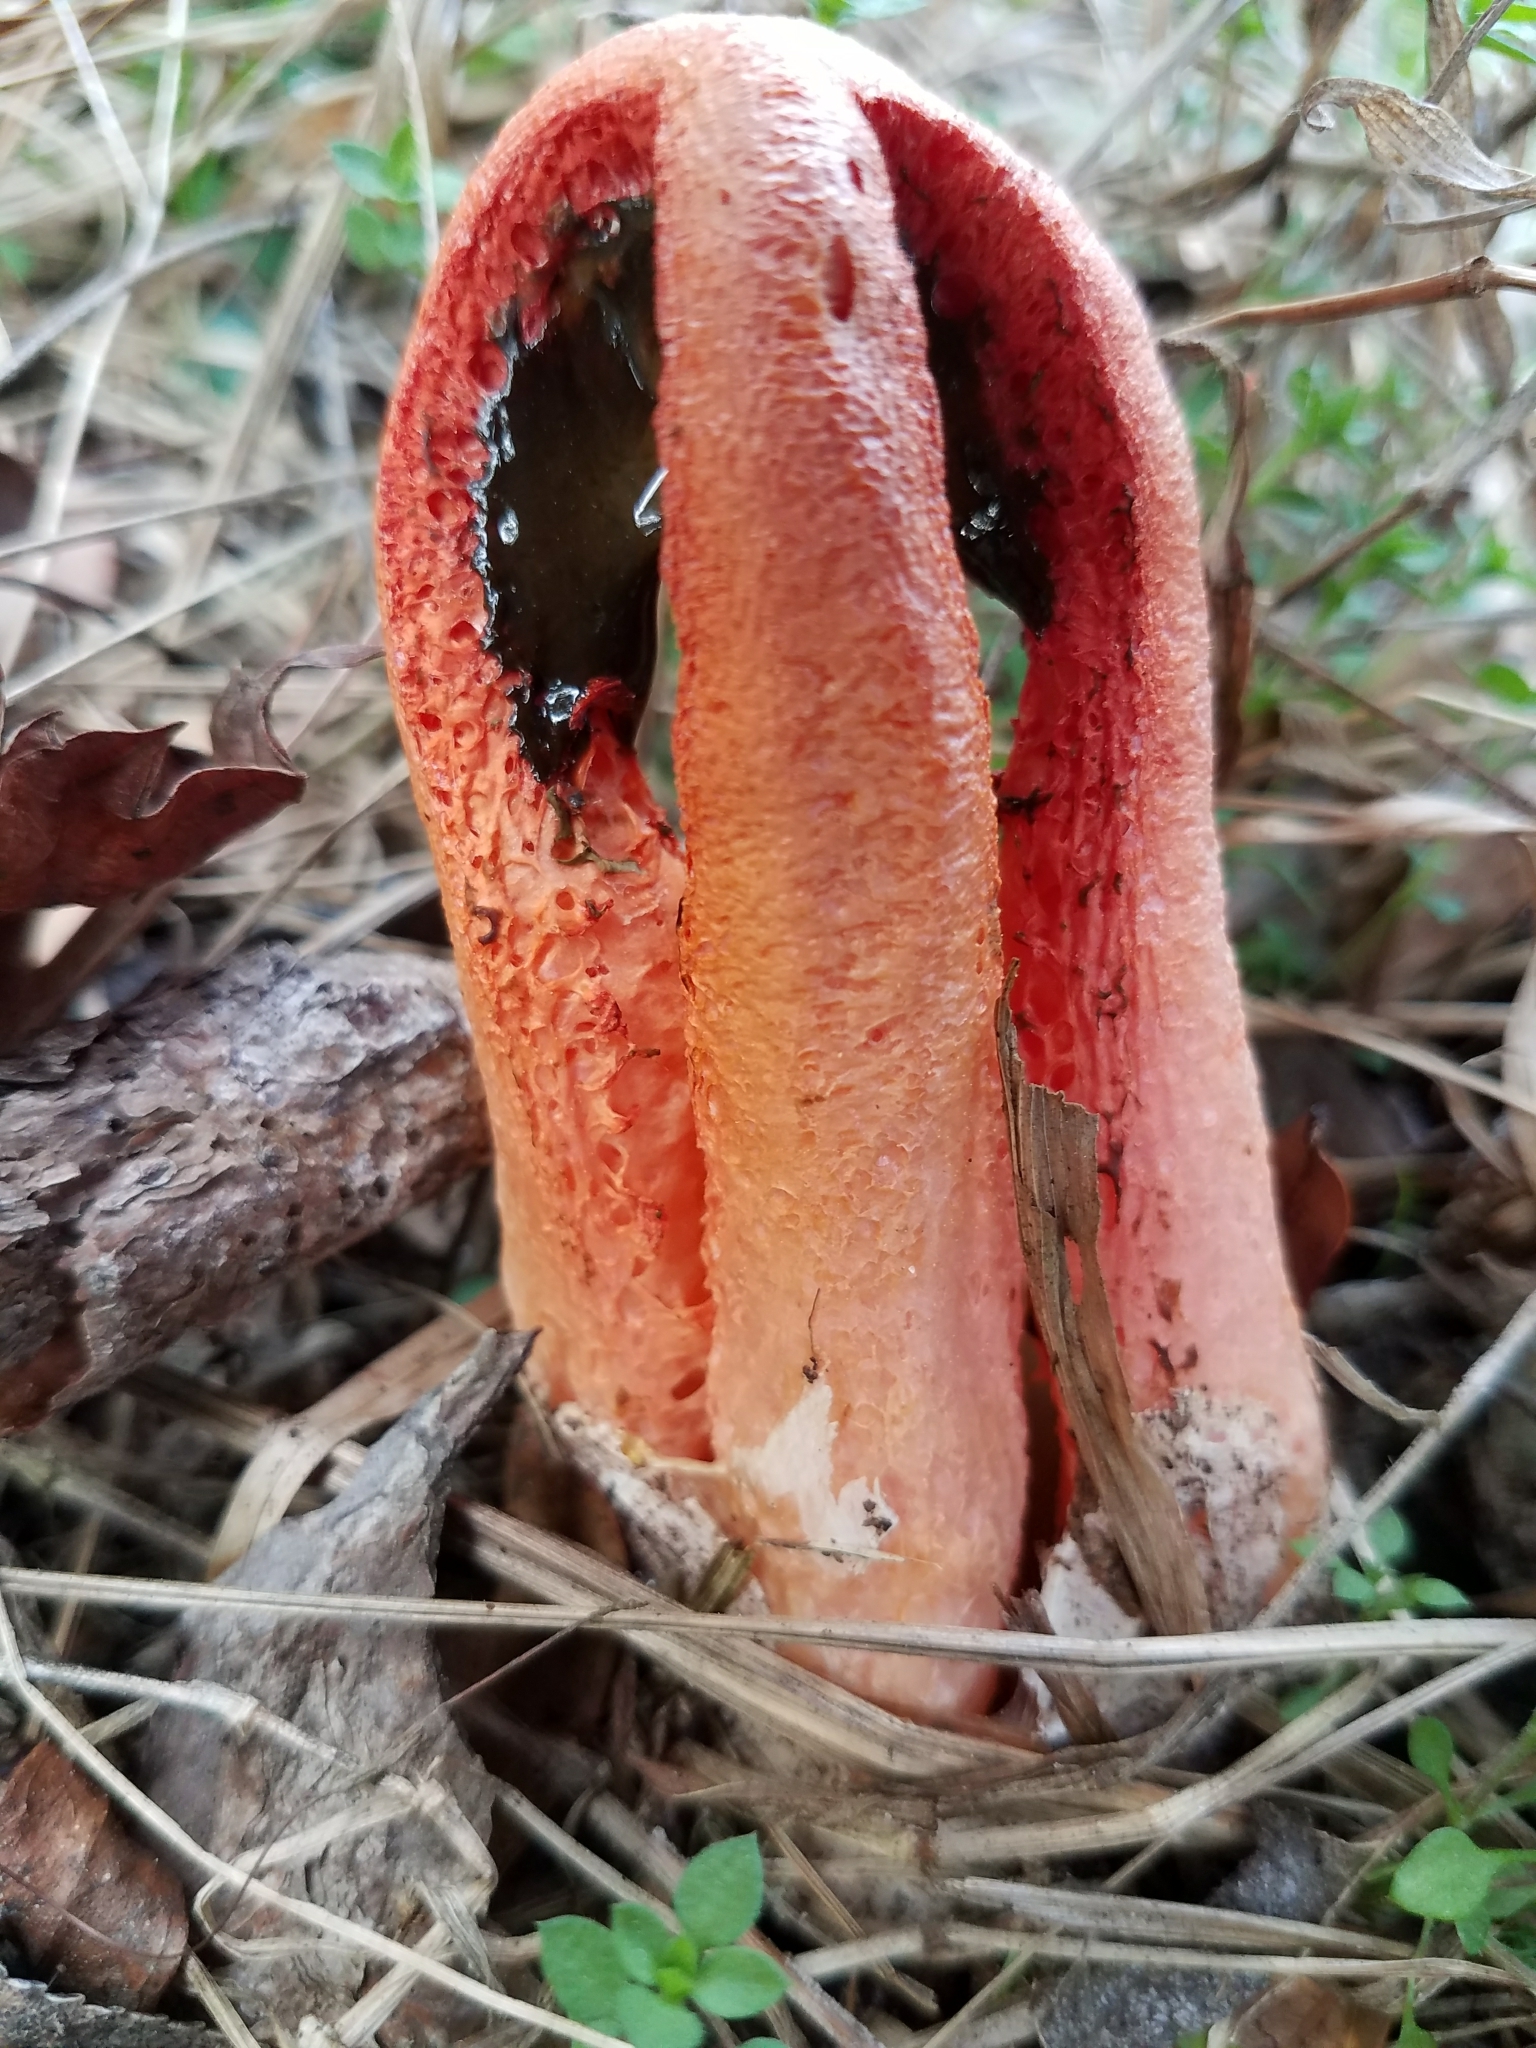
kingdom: Fungi
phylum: Basidiomycota
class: Agaricomycetes
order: Phallales
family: Phallaceae
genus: Clathrus
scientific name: Clathrus columnatus
